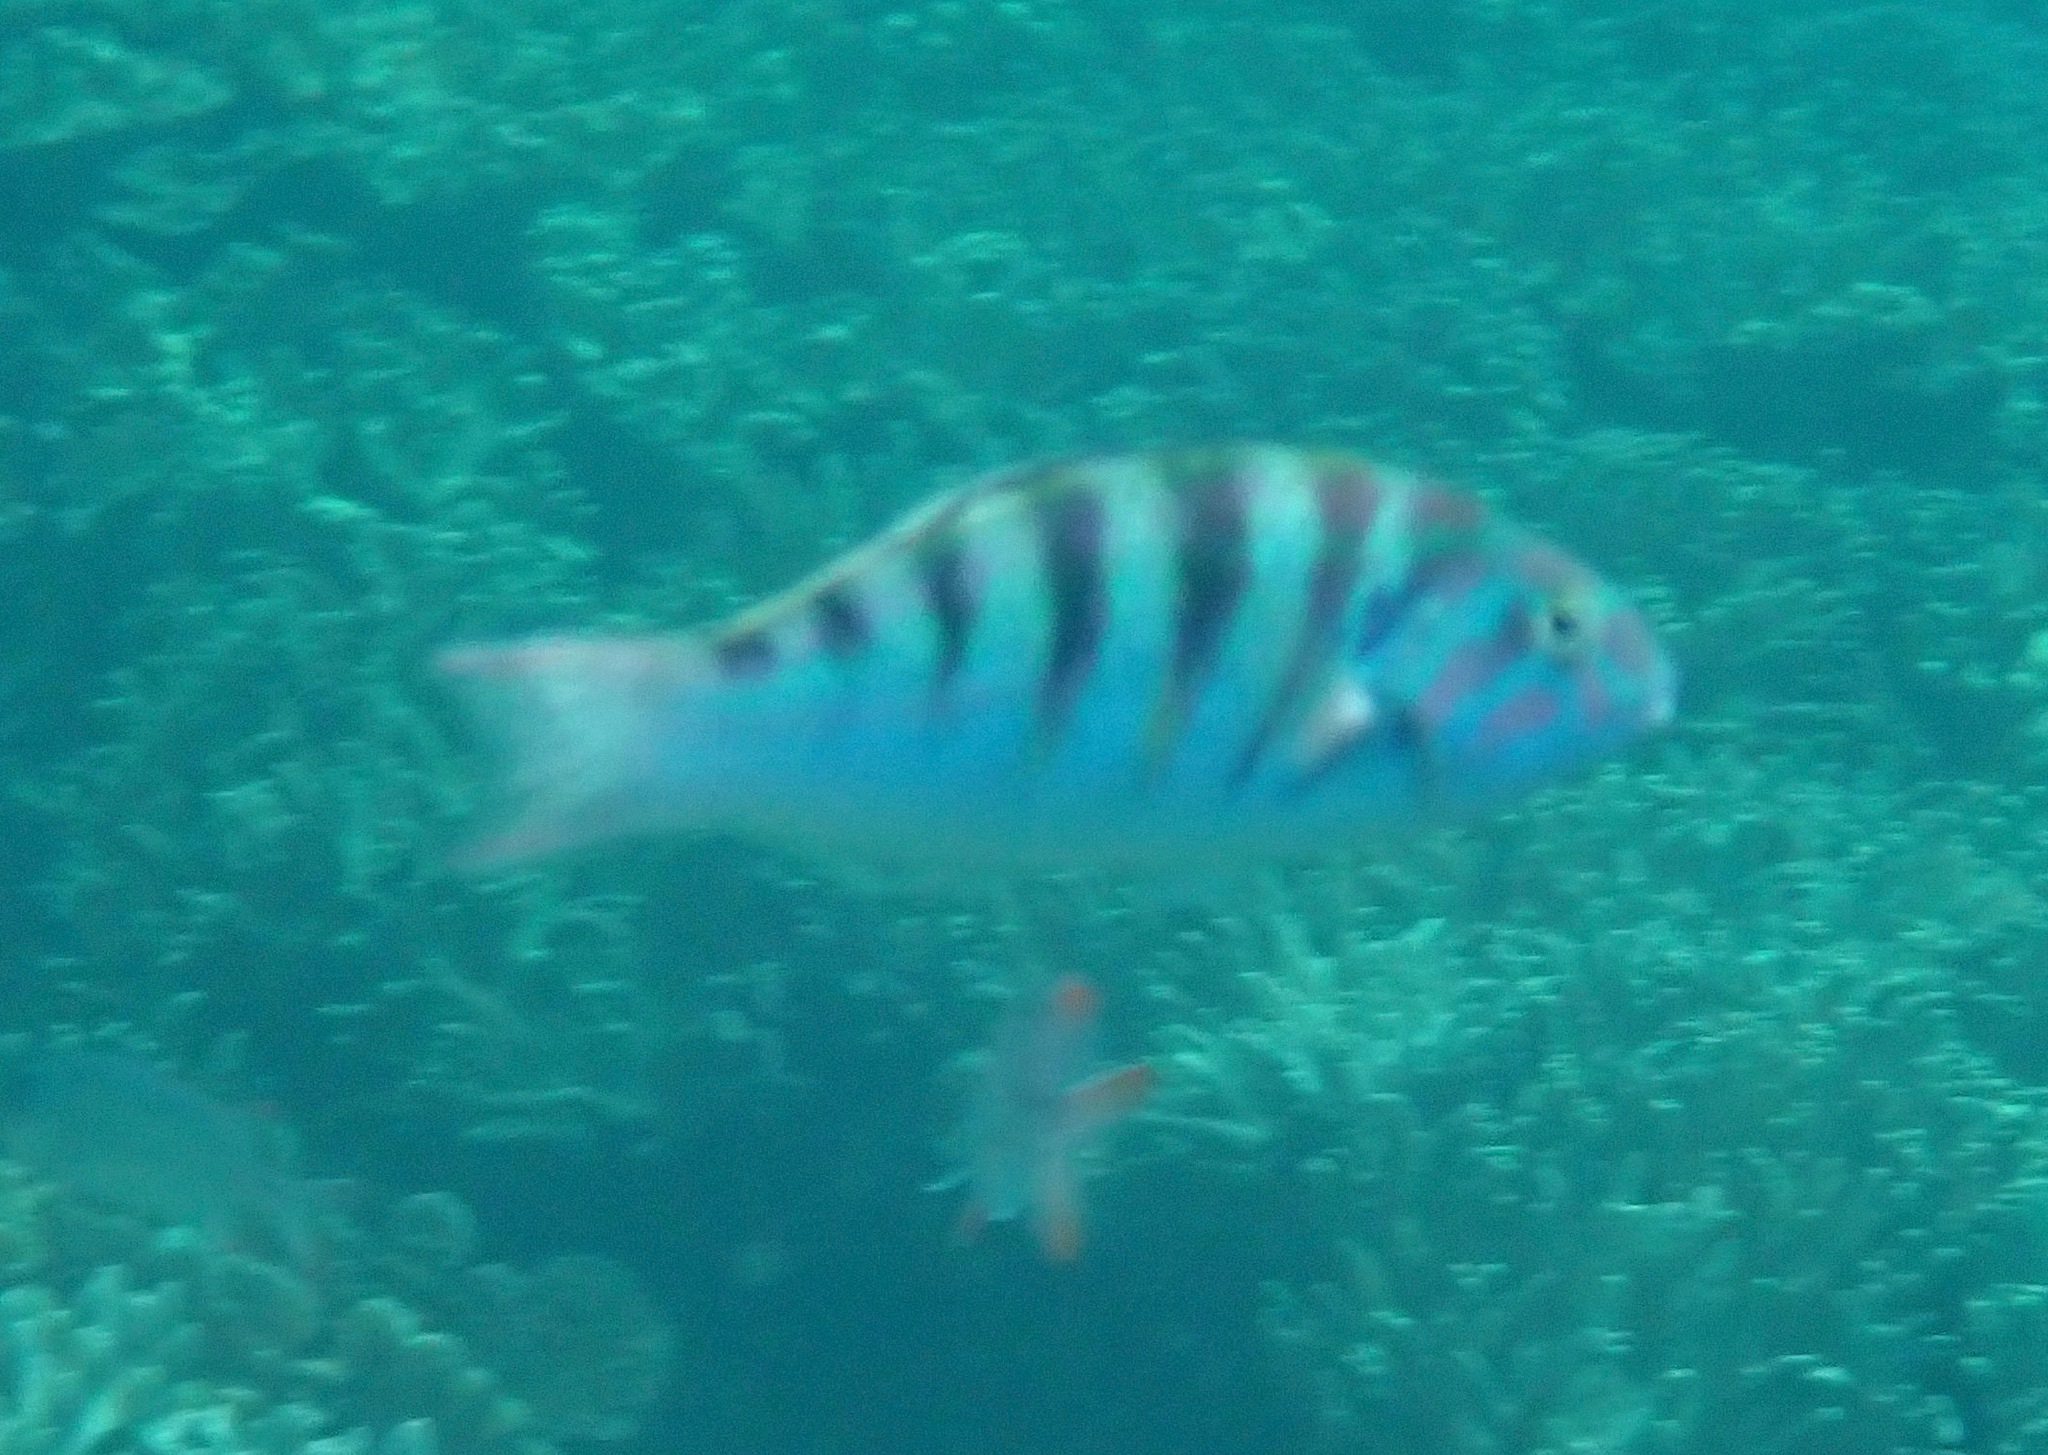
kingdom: Animalia
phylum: Chordata
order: Perciformes
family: Labridae
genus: Thalassoma
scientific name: Thalassoma hardwicke
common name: Sixbar wrasse
